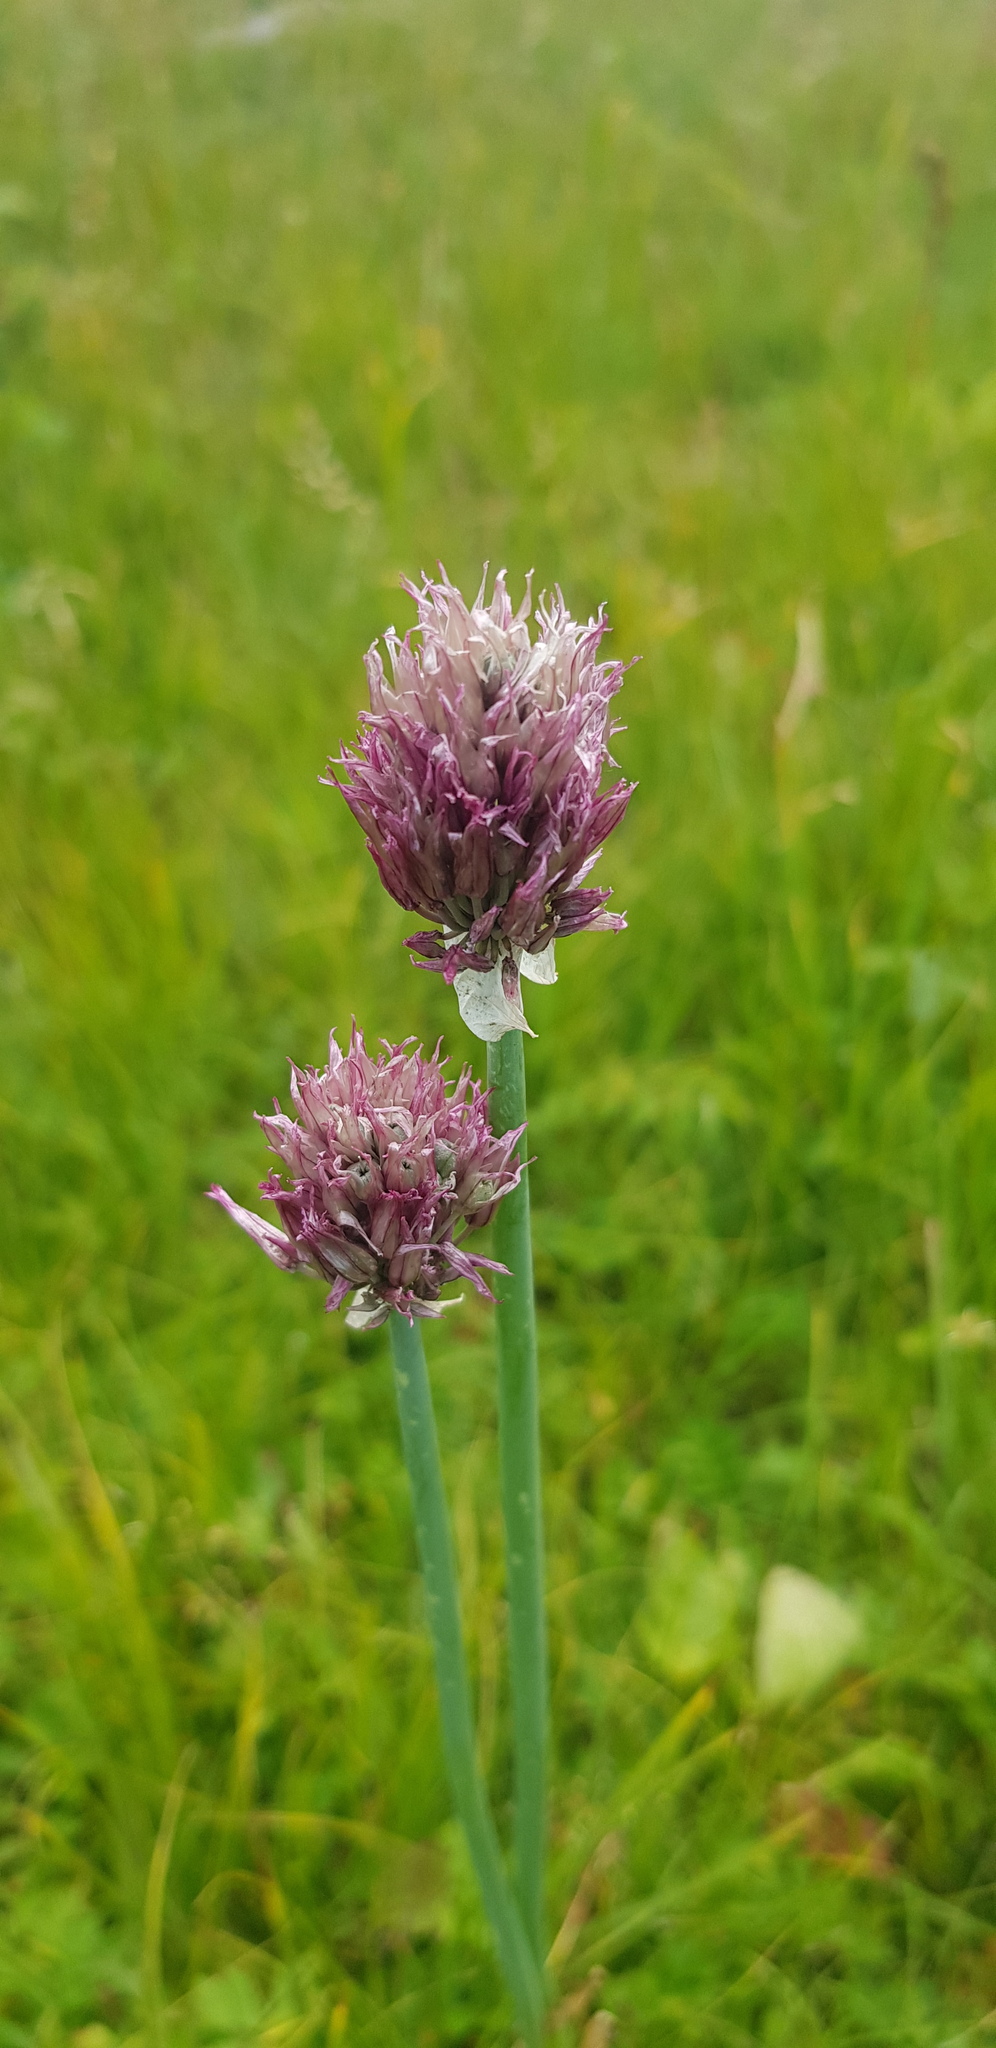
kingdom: Plantae
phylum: Tracheophyta
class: Liliopsida
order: Asparagales
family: Amaryllidaceae
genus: Allium
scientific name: Allium schoenoprasum
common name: Chives
